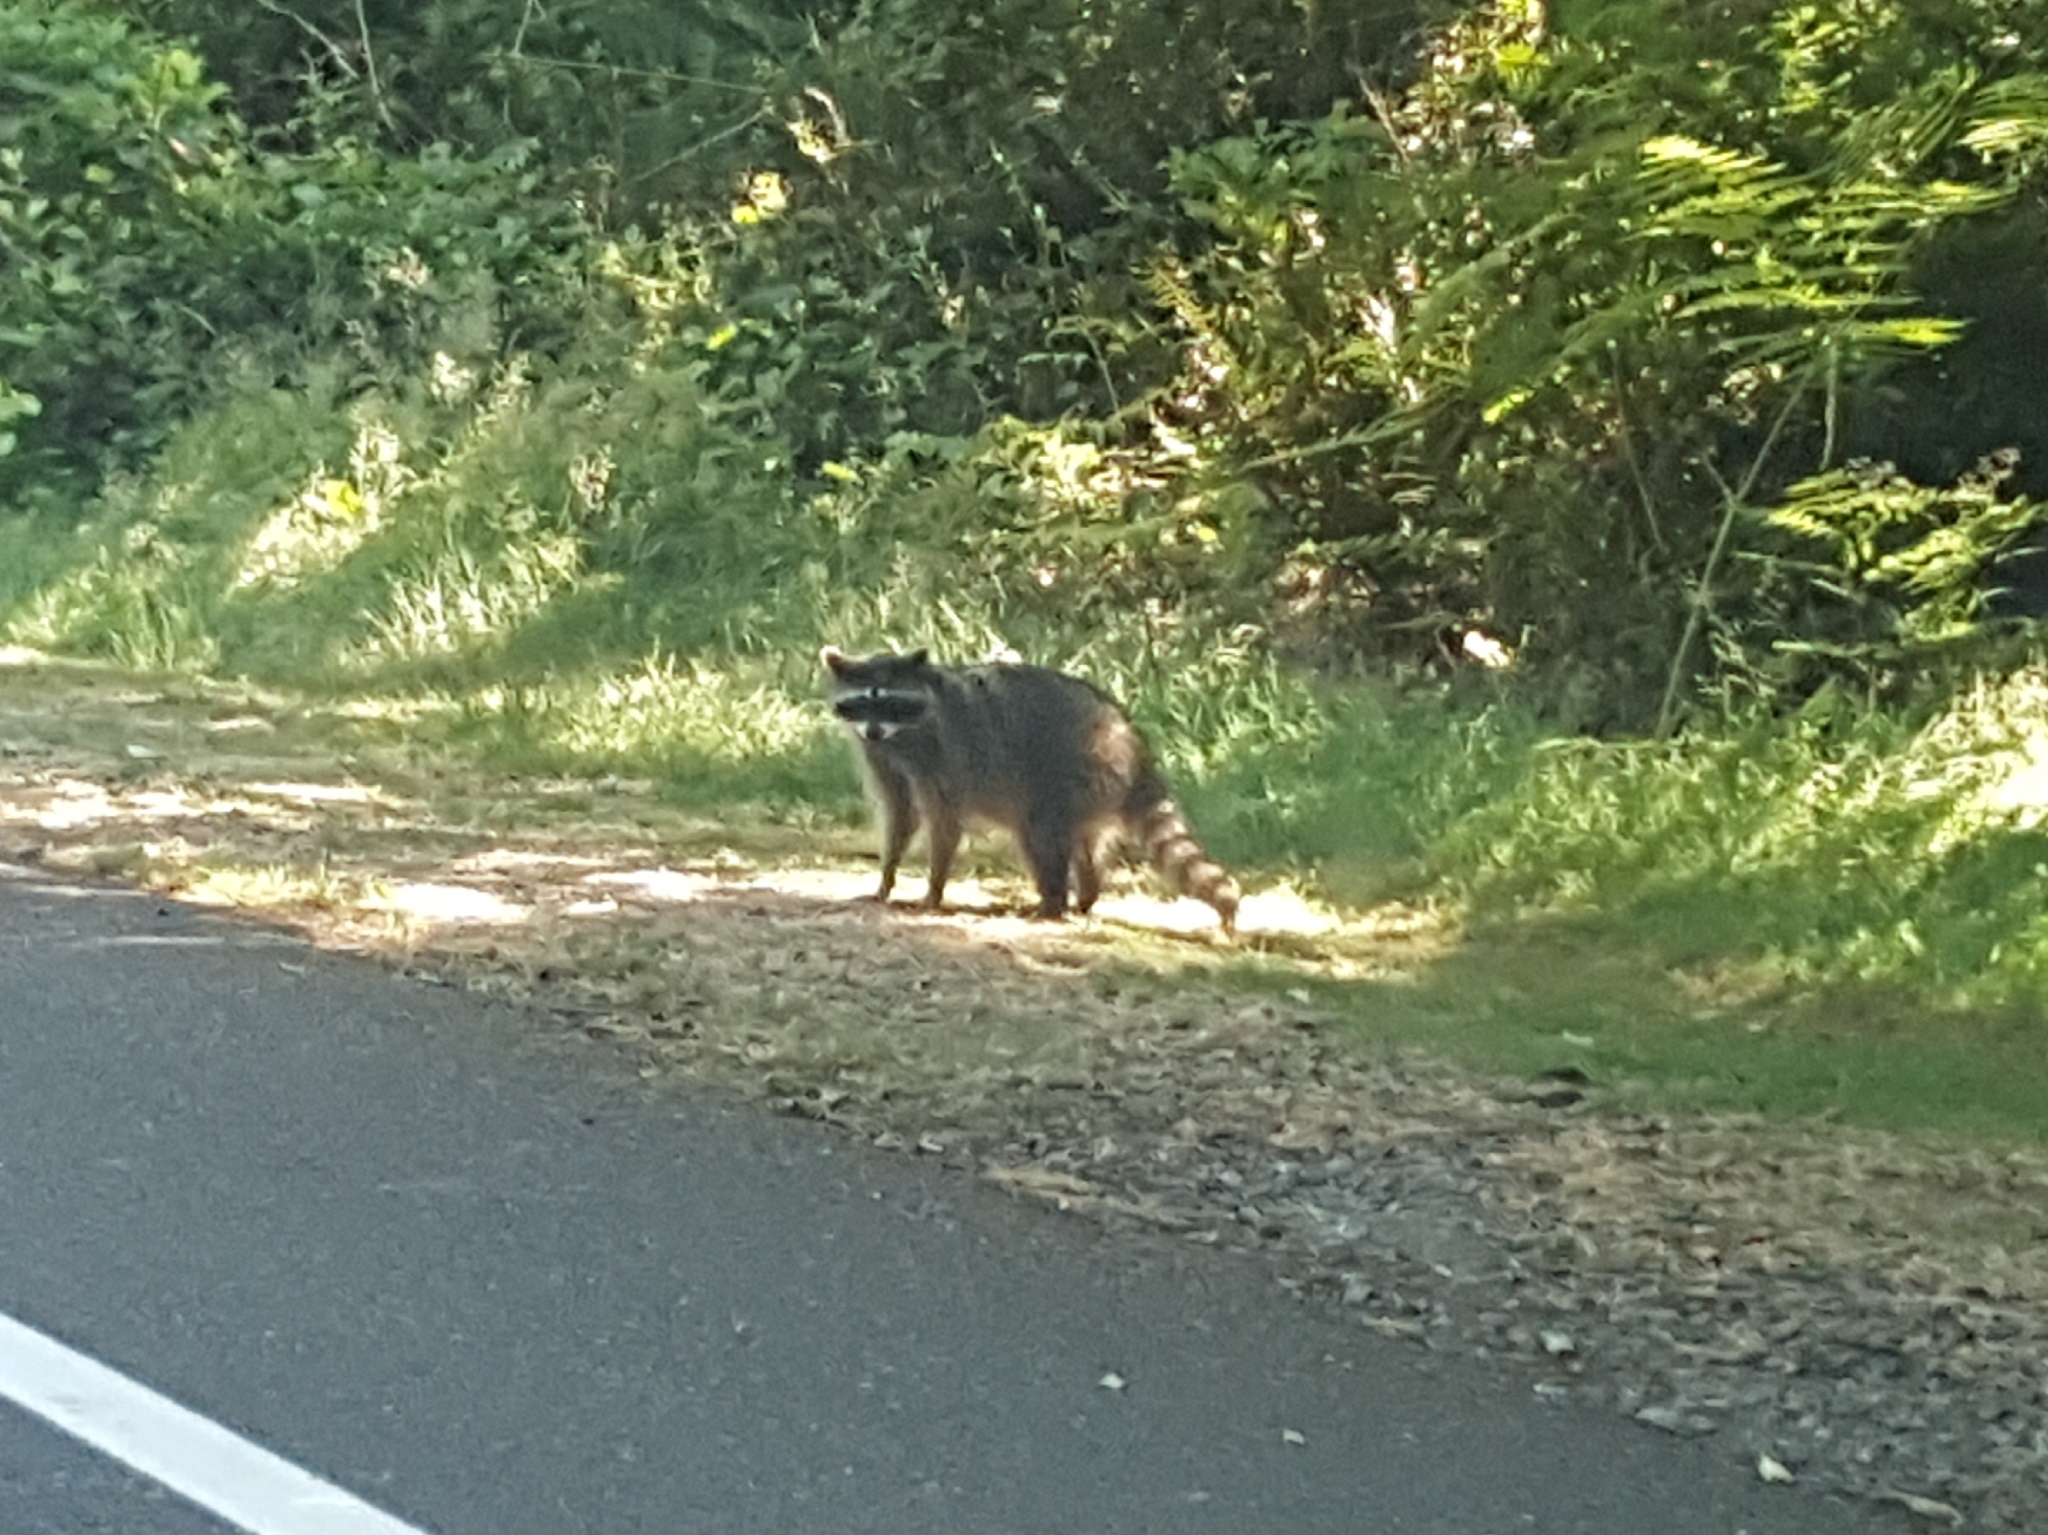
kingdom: Animalia
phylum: Chordata
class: Mammalia
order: Carnivora
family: Procyonidae
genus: Procyon
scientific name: Procyon lotor
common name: Raccoon
